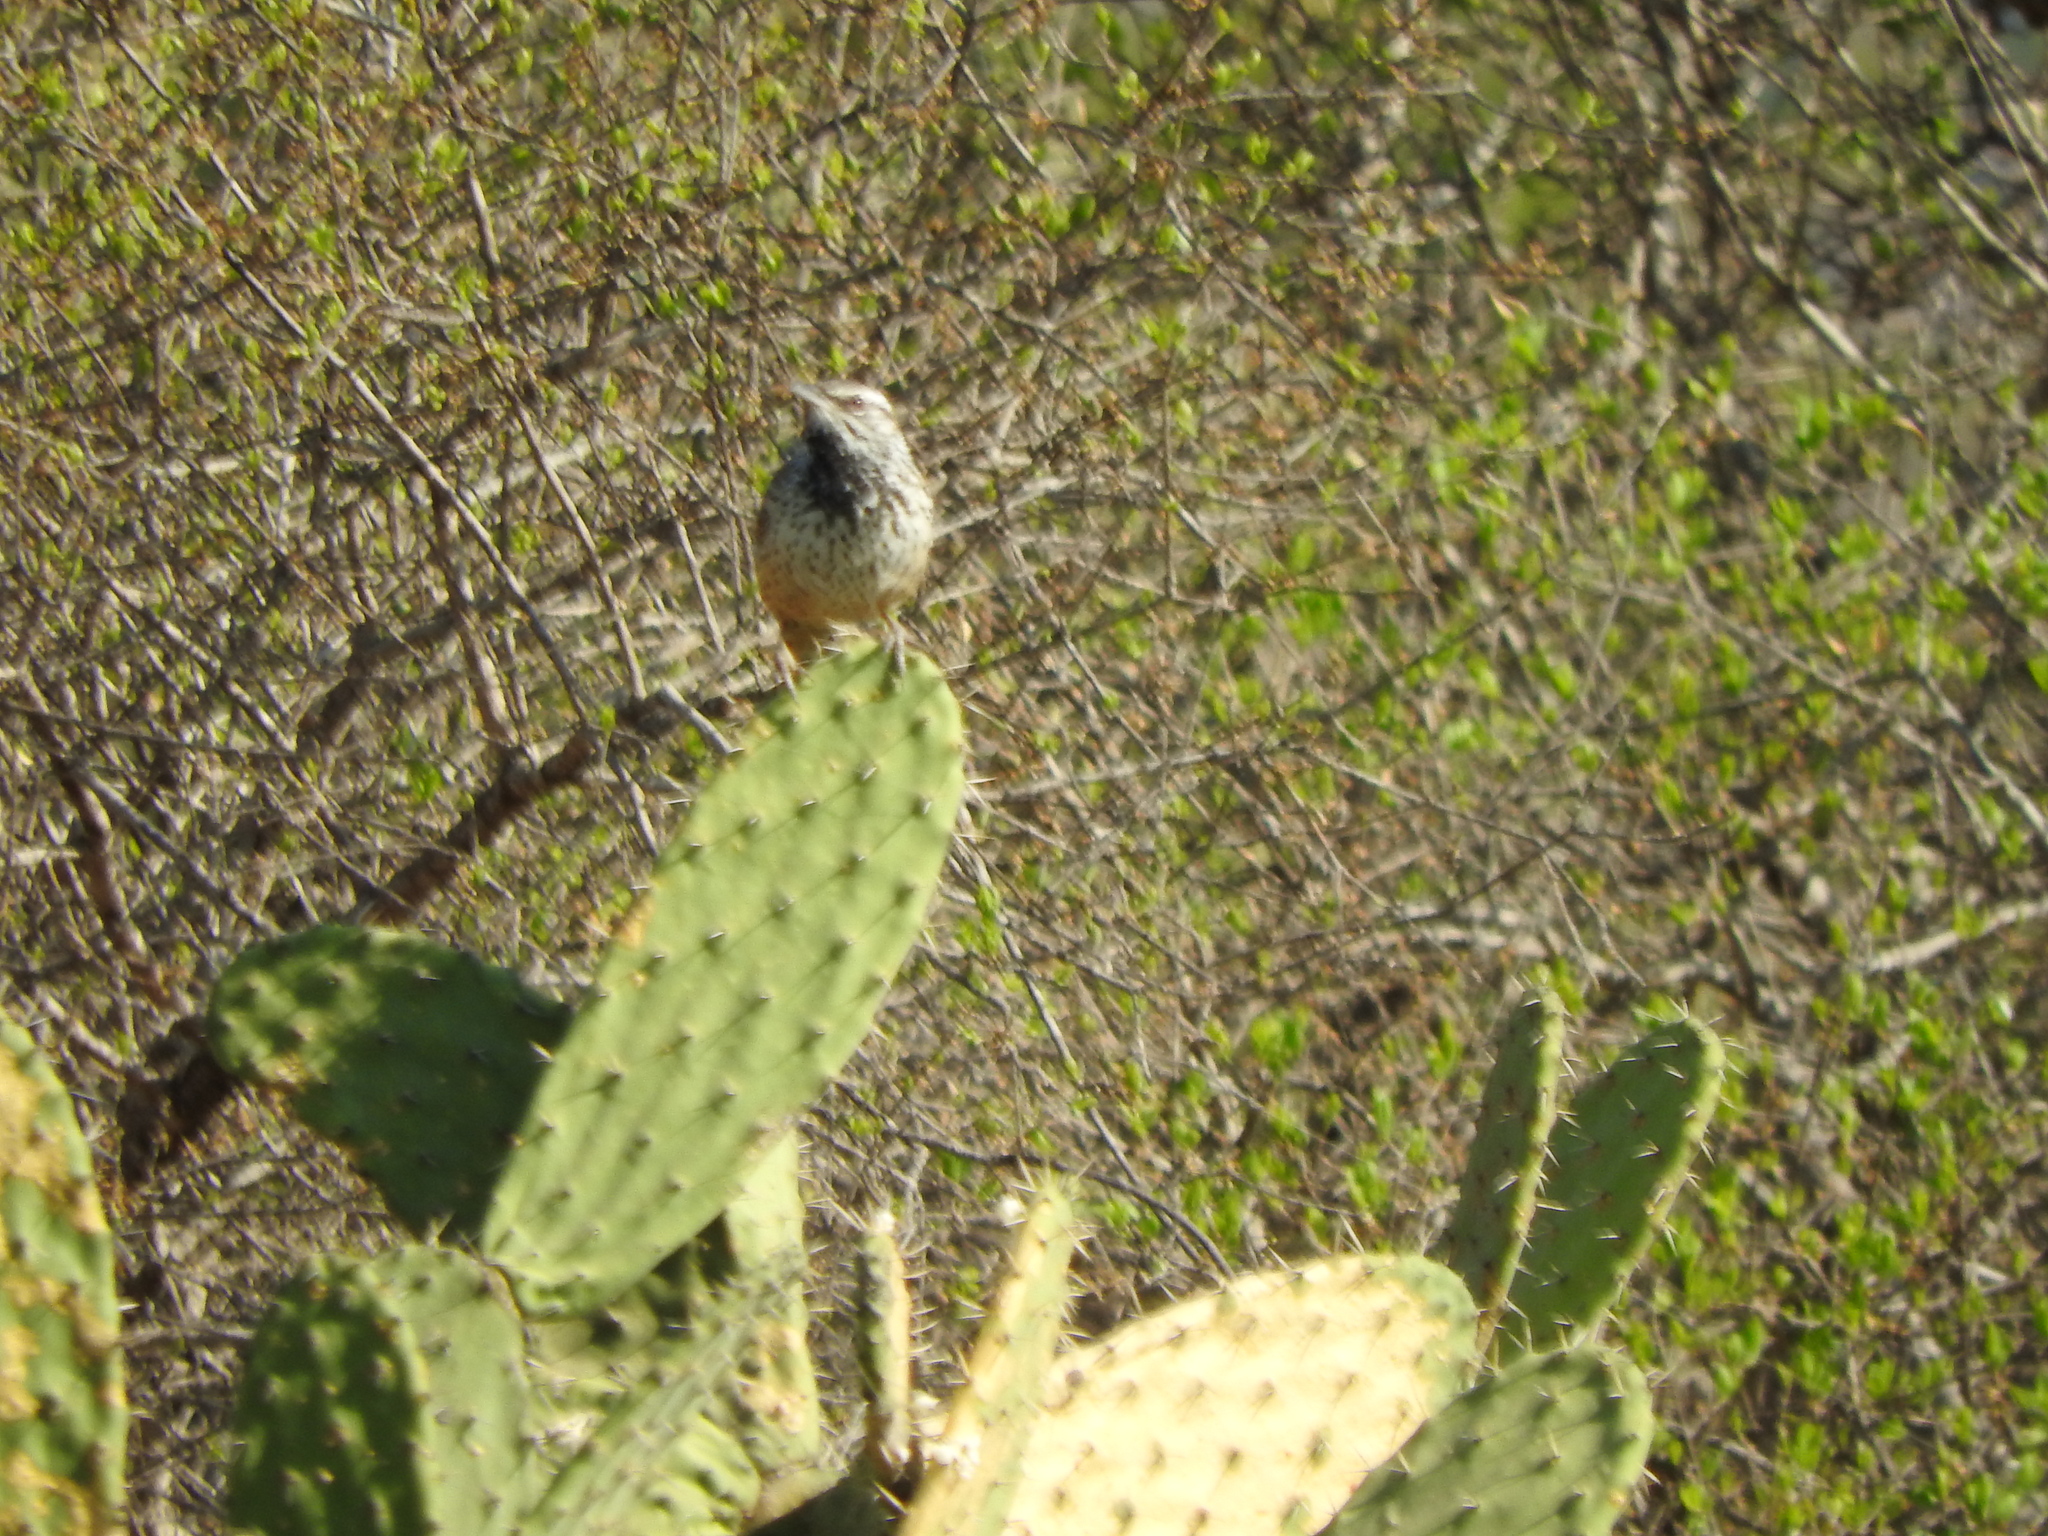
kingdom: Animalia
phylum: Chordata
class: Aves
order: Passeriformes
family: Troglodytidae
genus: Campylorhynchus
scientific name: Campylorhynchus brunneicapillus
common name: Cactus wren
